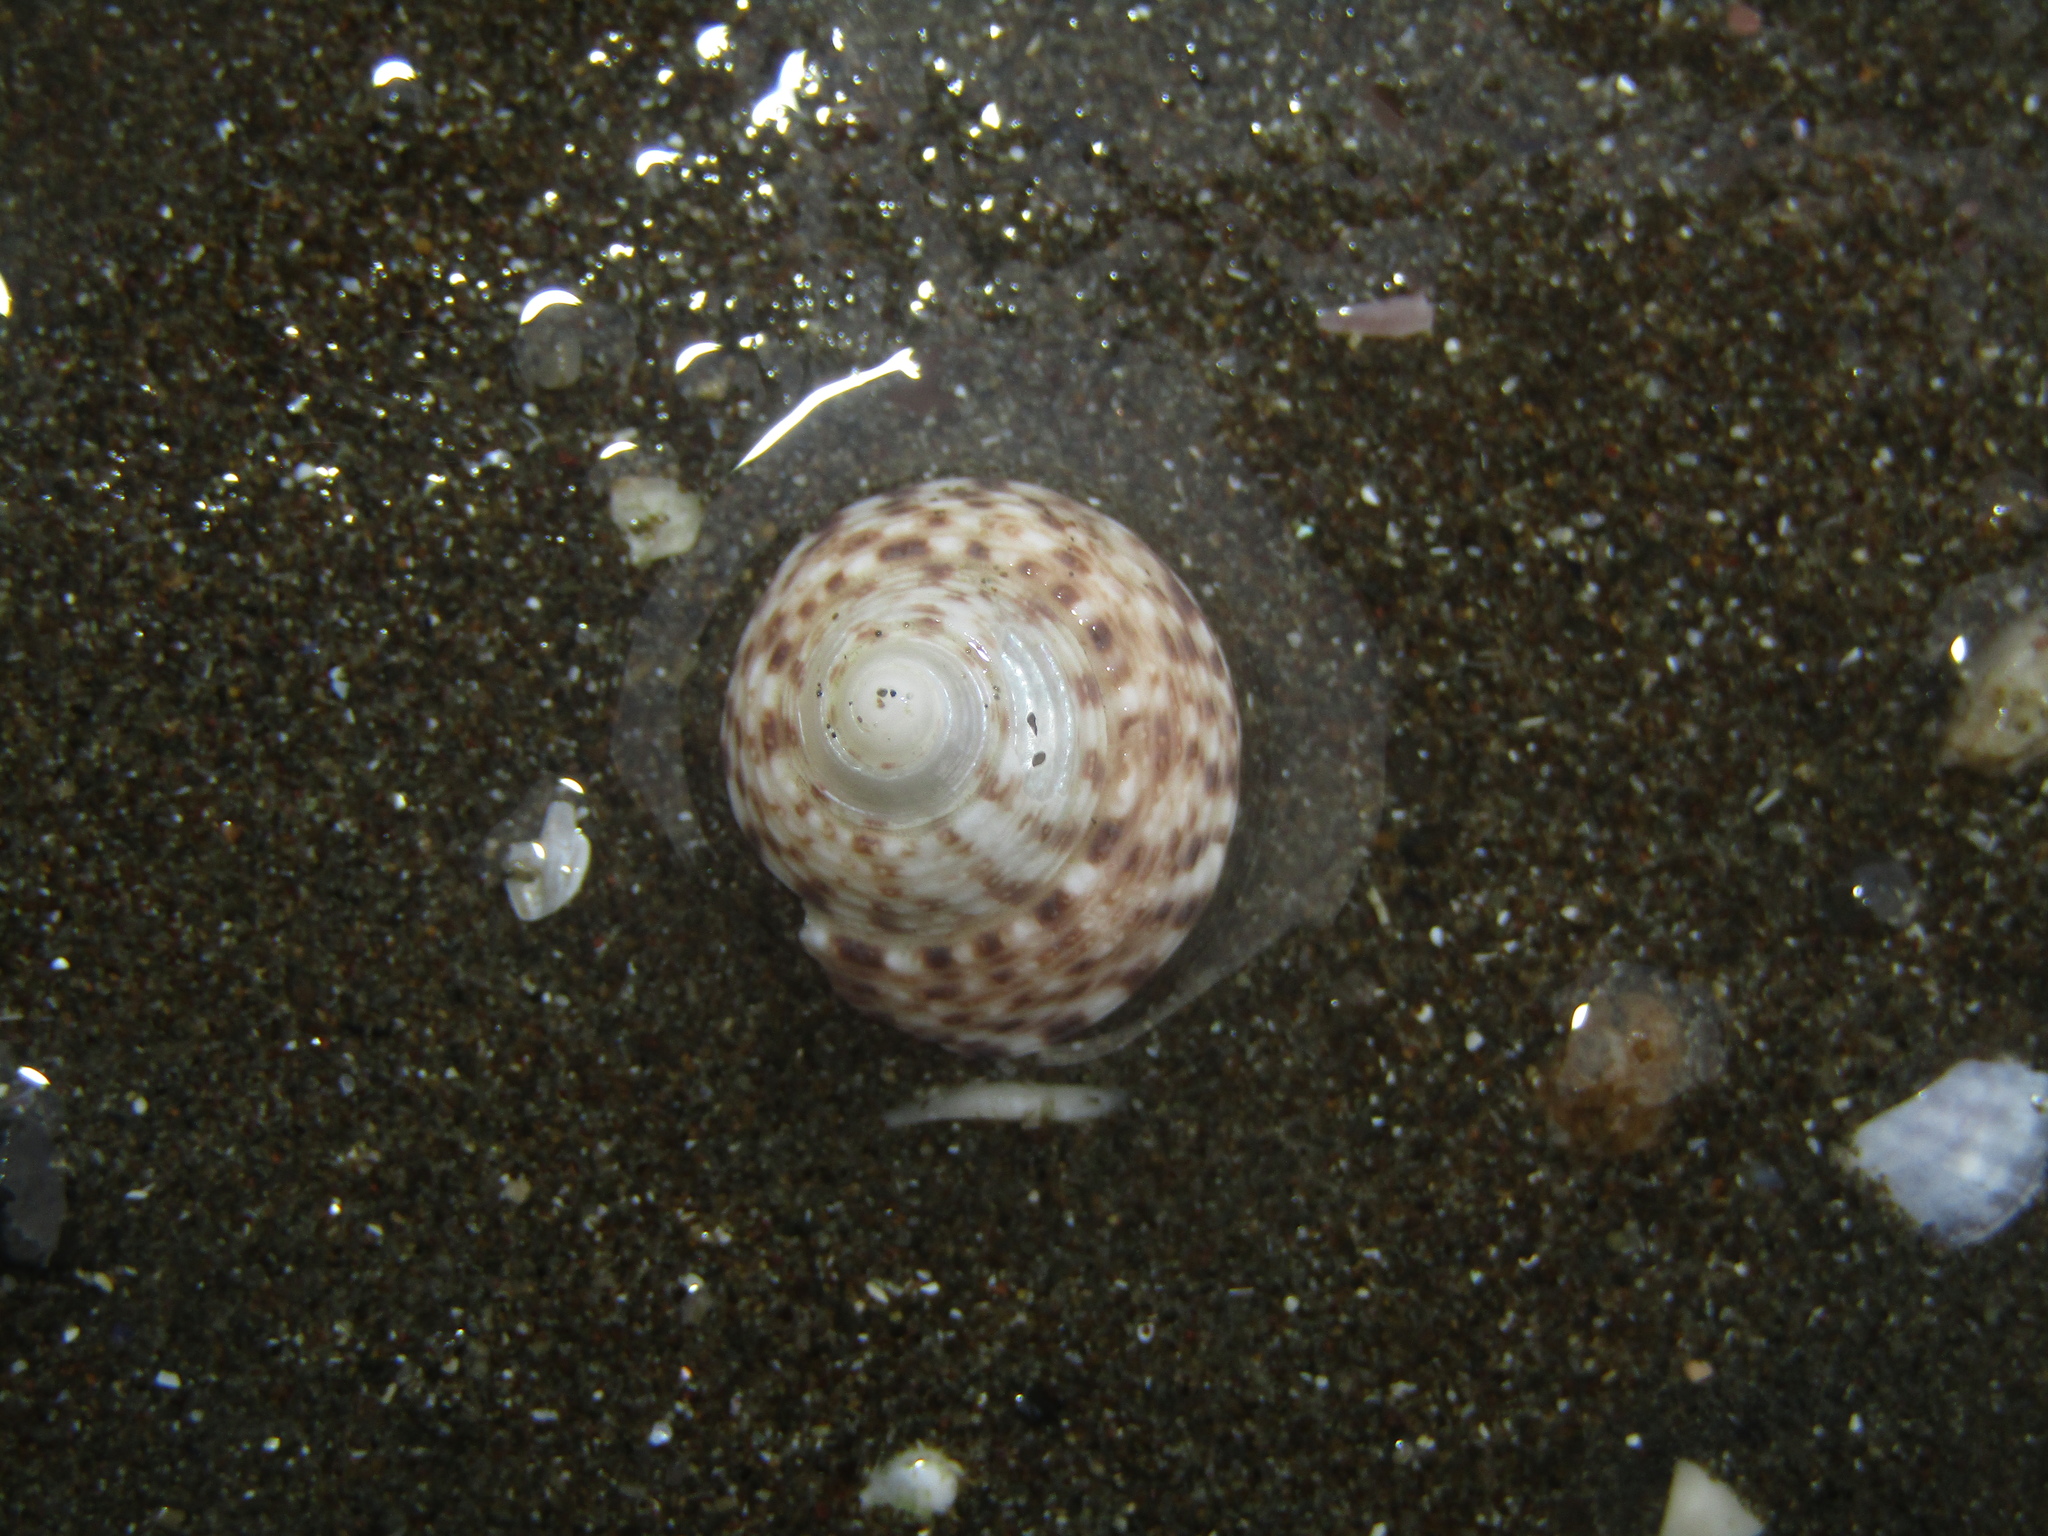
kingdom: Animalia
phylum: Mollusca
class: Gastropoda
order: Trochida
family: Trochidae
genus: Coelotrochus
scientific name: Coelotrochus tiaratus
